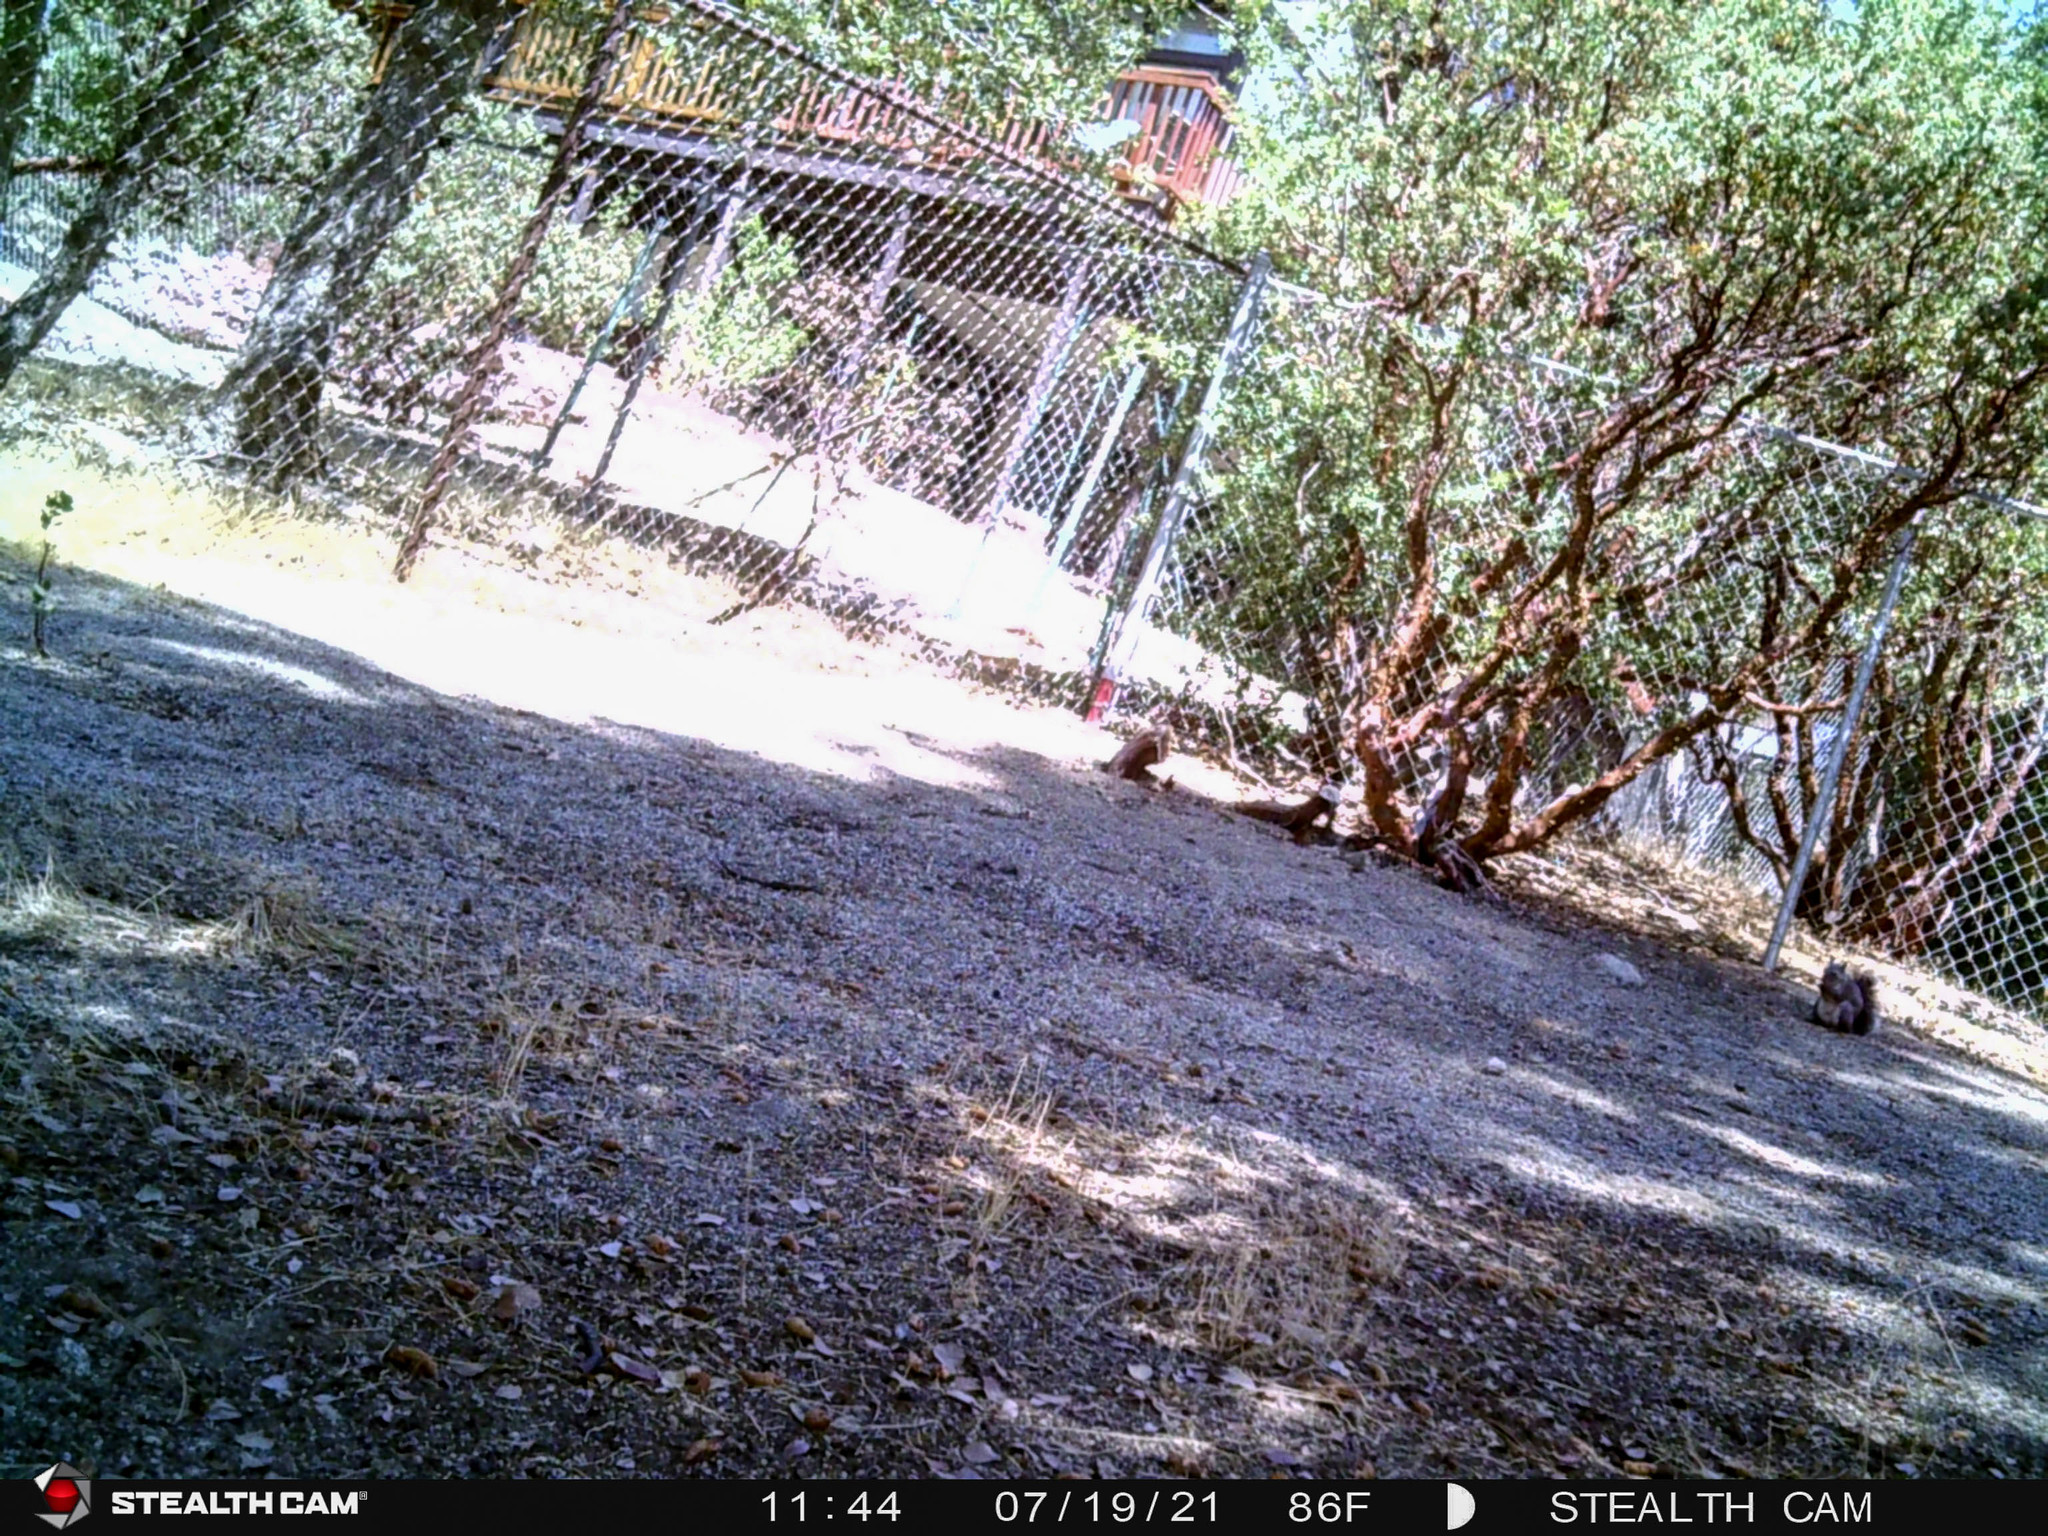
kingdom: Animalia
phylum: Chordata
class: Mammalia
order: Rodentia
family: Sciuridae
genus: Sciurus
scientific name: Sciurus griseus
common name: Western gray squirrel
